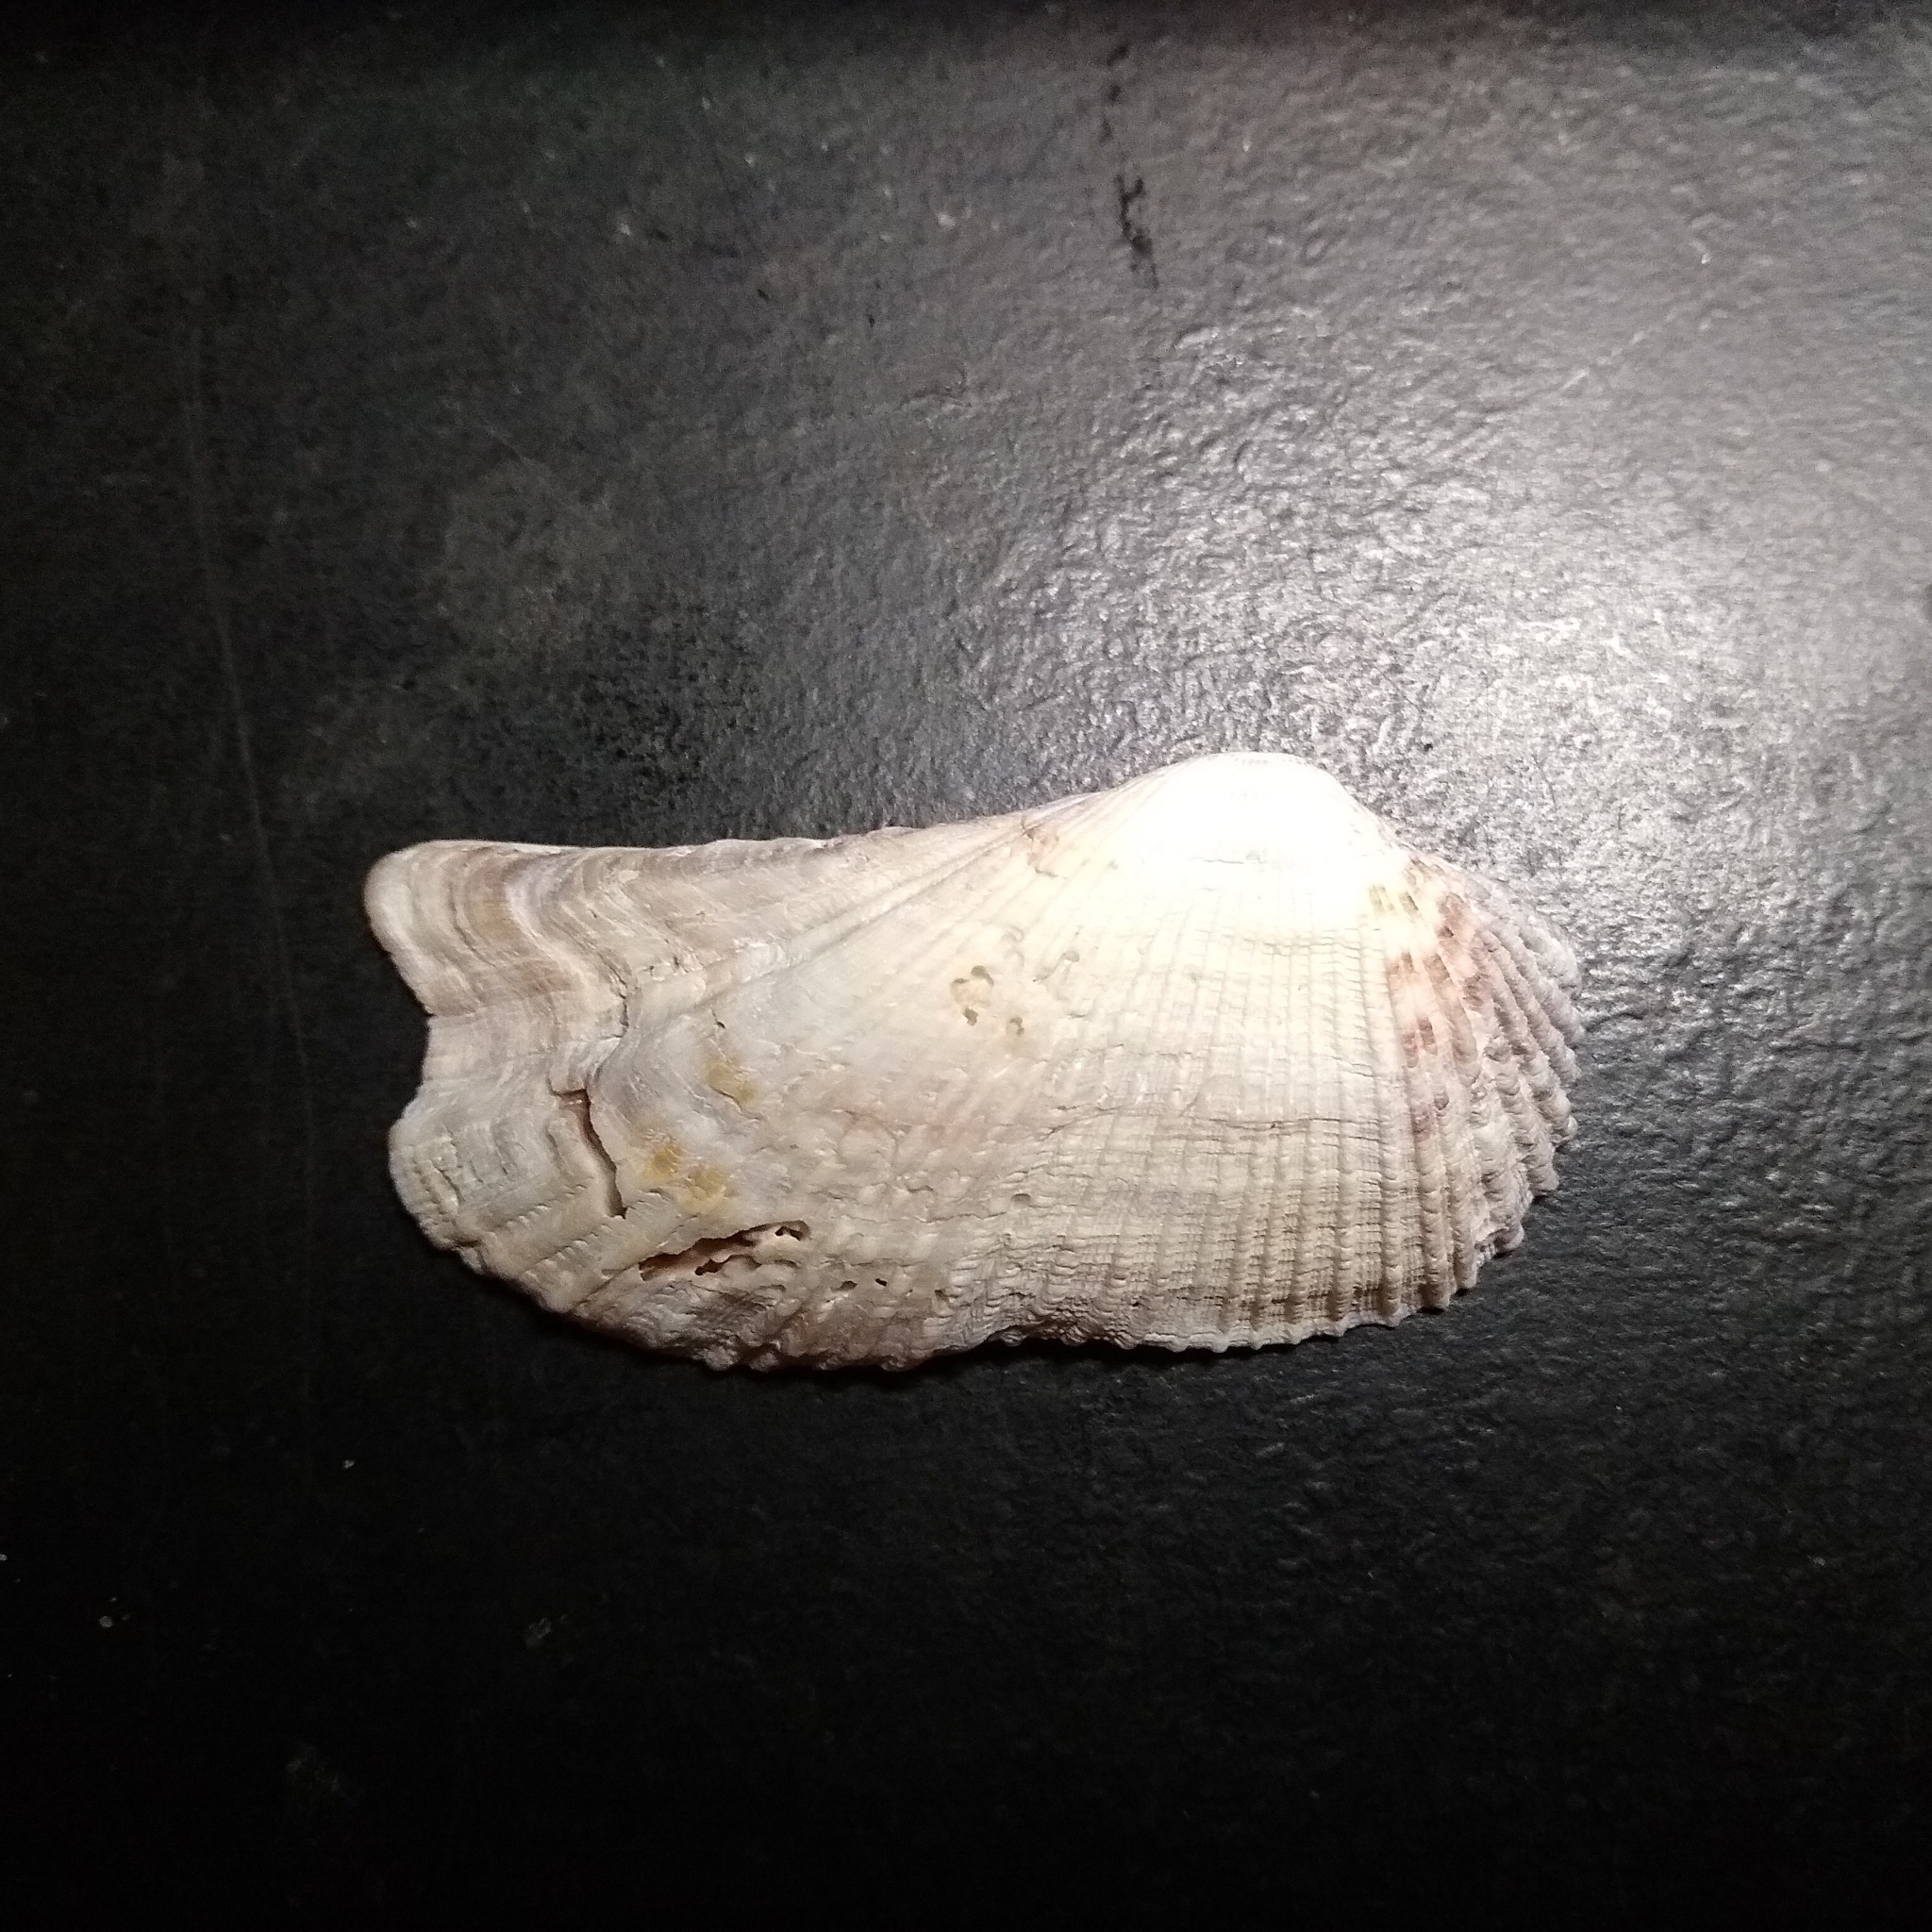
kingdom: Animalia
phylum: Mollusca
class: Bivalvia
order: Arcida
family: Arcidae
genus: Arca
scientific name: Arca zebra
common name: Atlantic turkey wing
